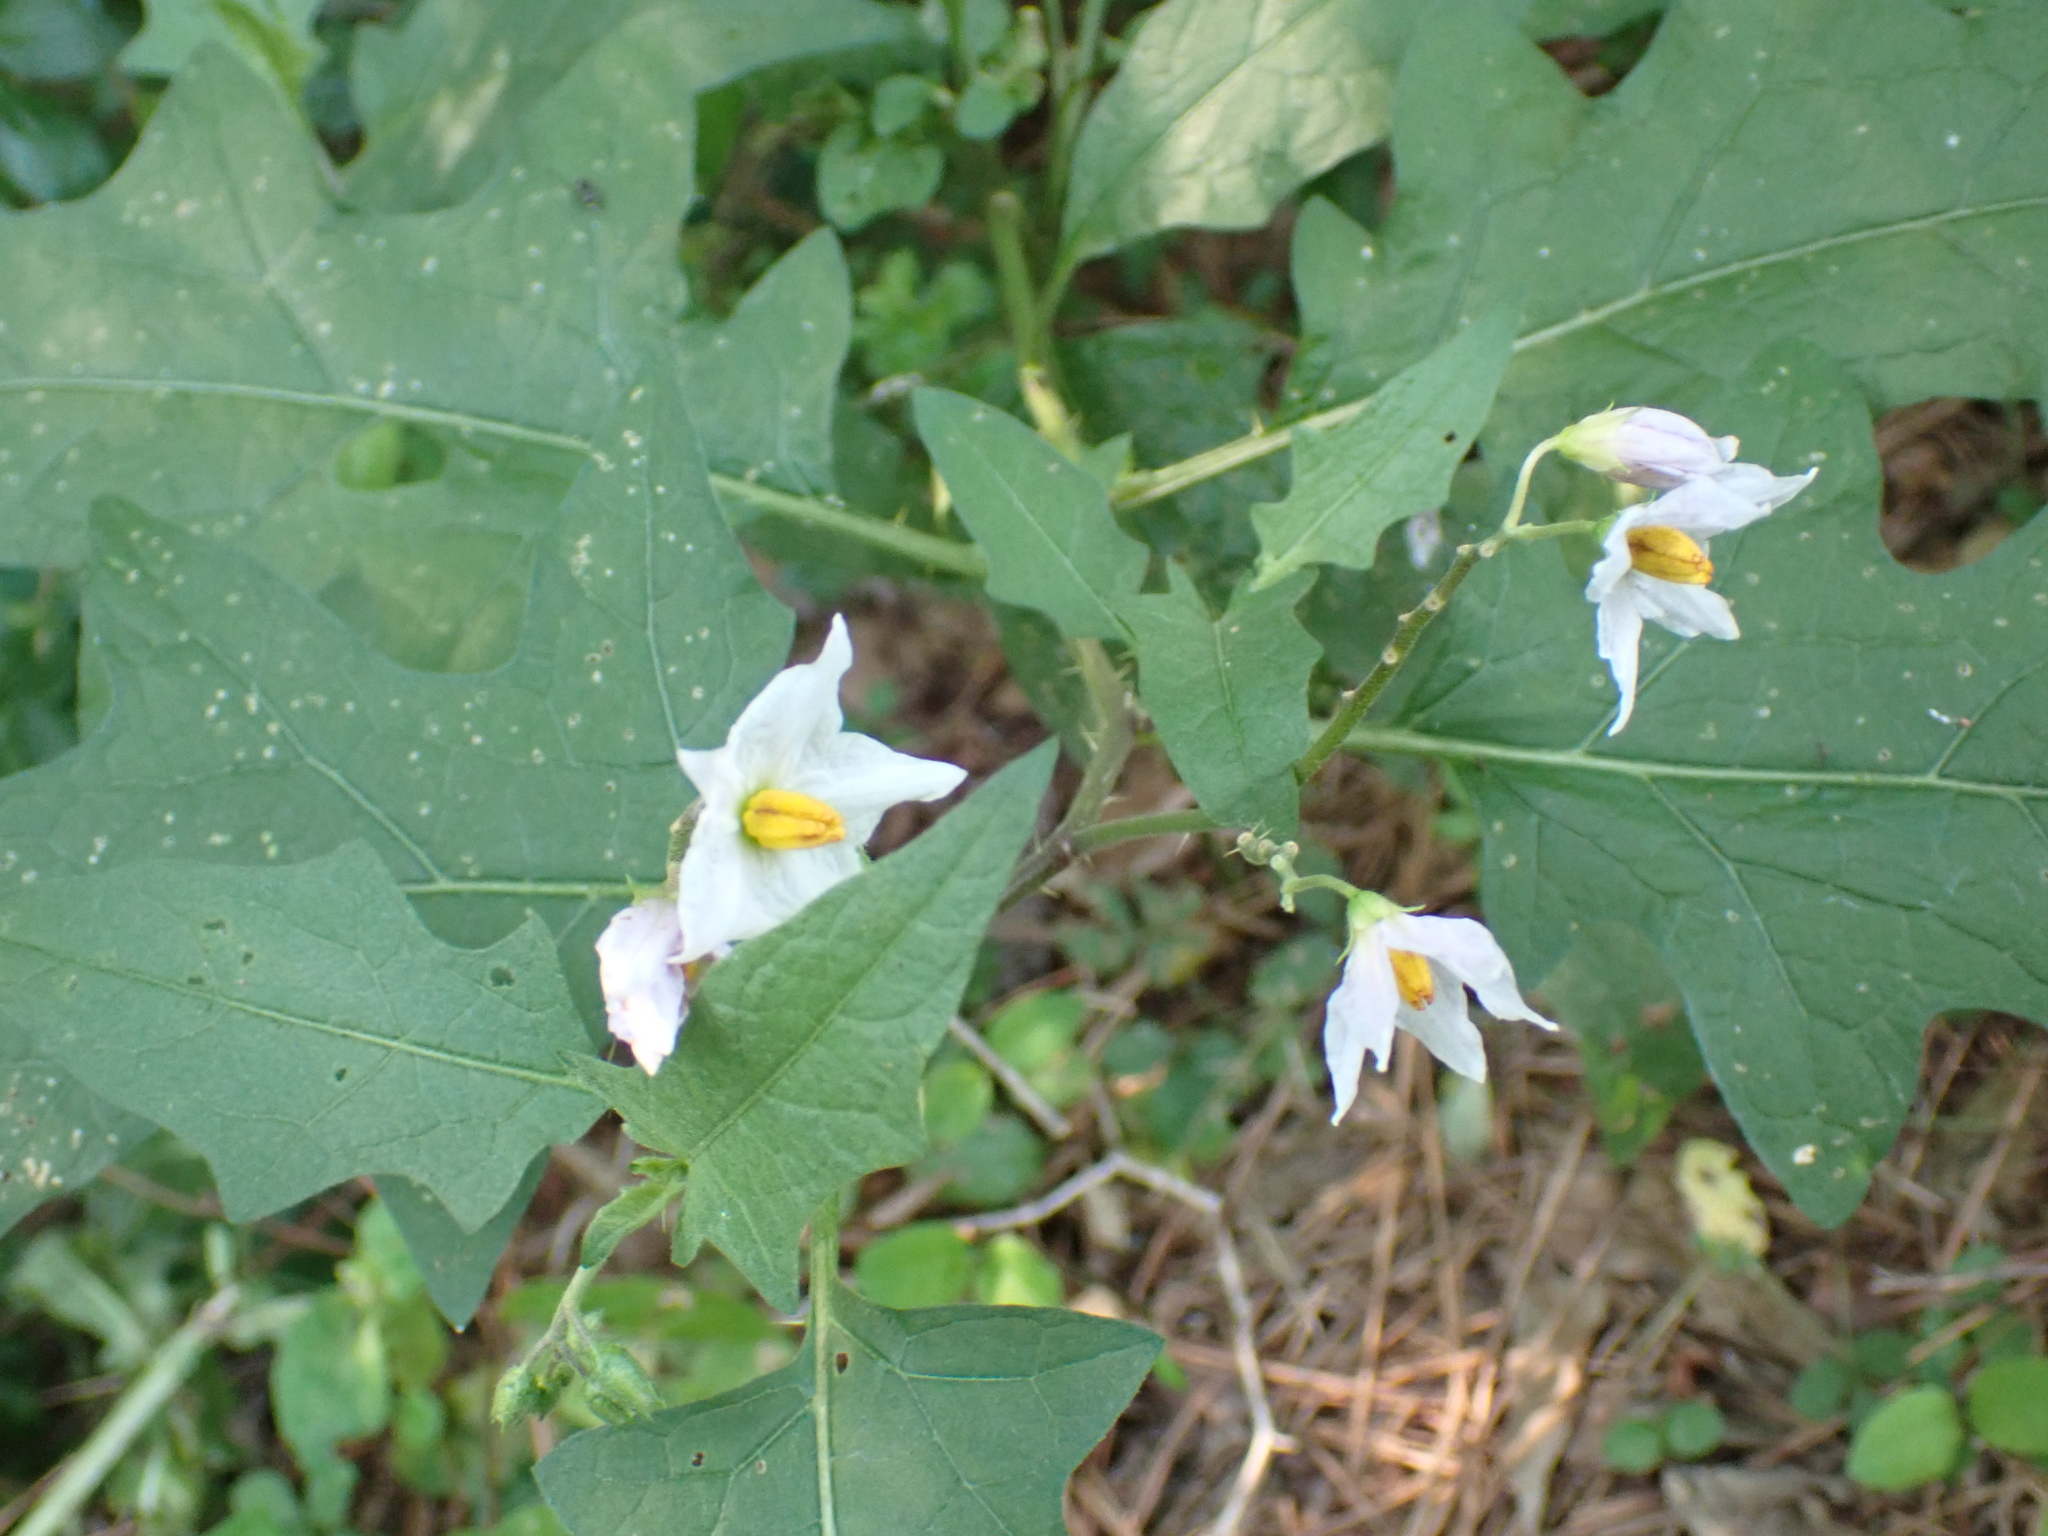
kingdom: Plantae
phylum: Tracheophyta
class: Magnoliopsida
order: Solanales
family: Solanaceae
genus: Solanum
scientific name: Solanum carolinense
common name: Horse-nettle
